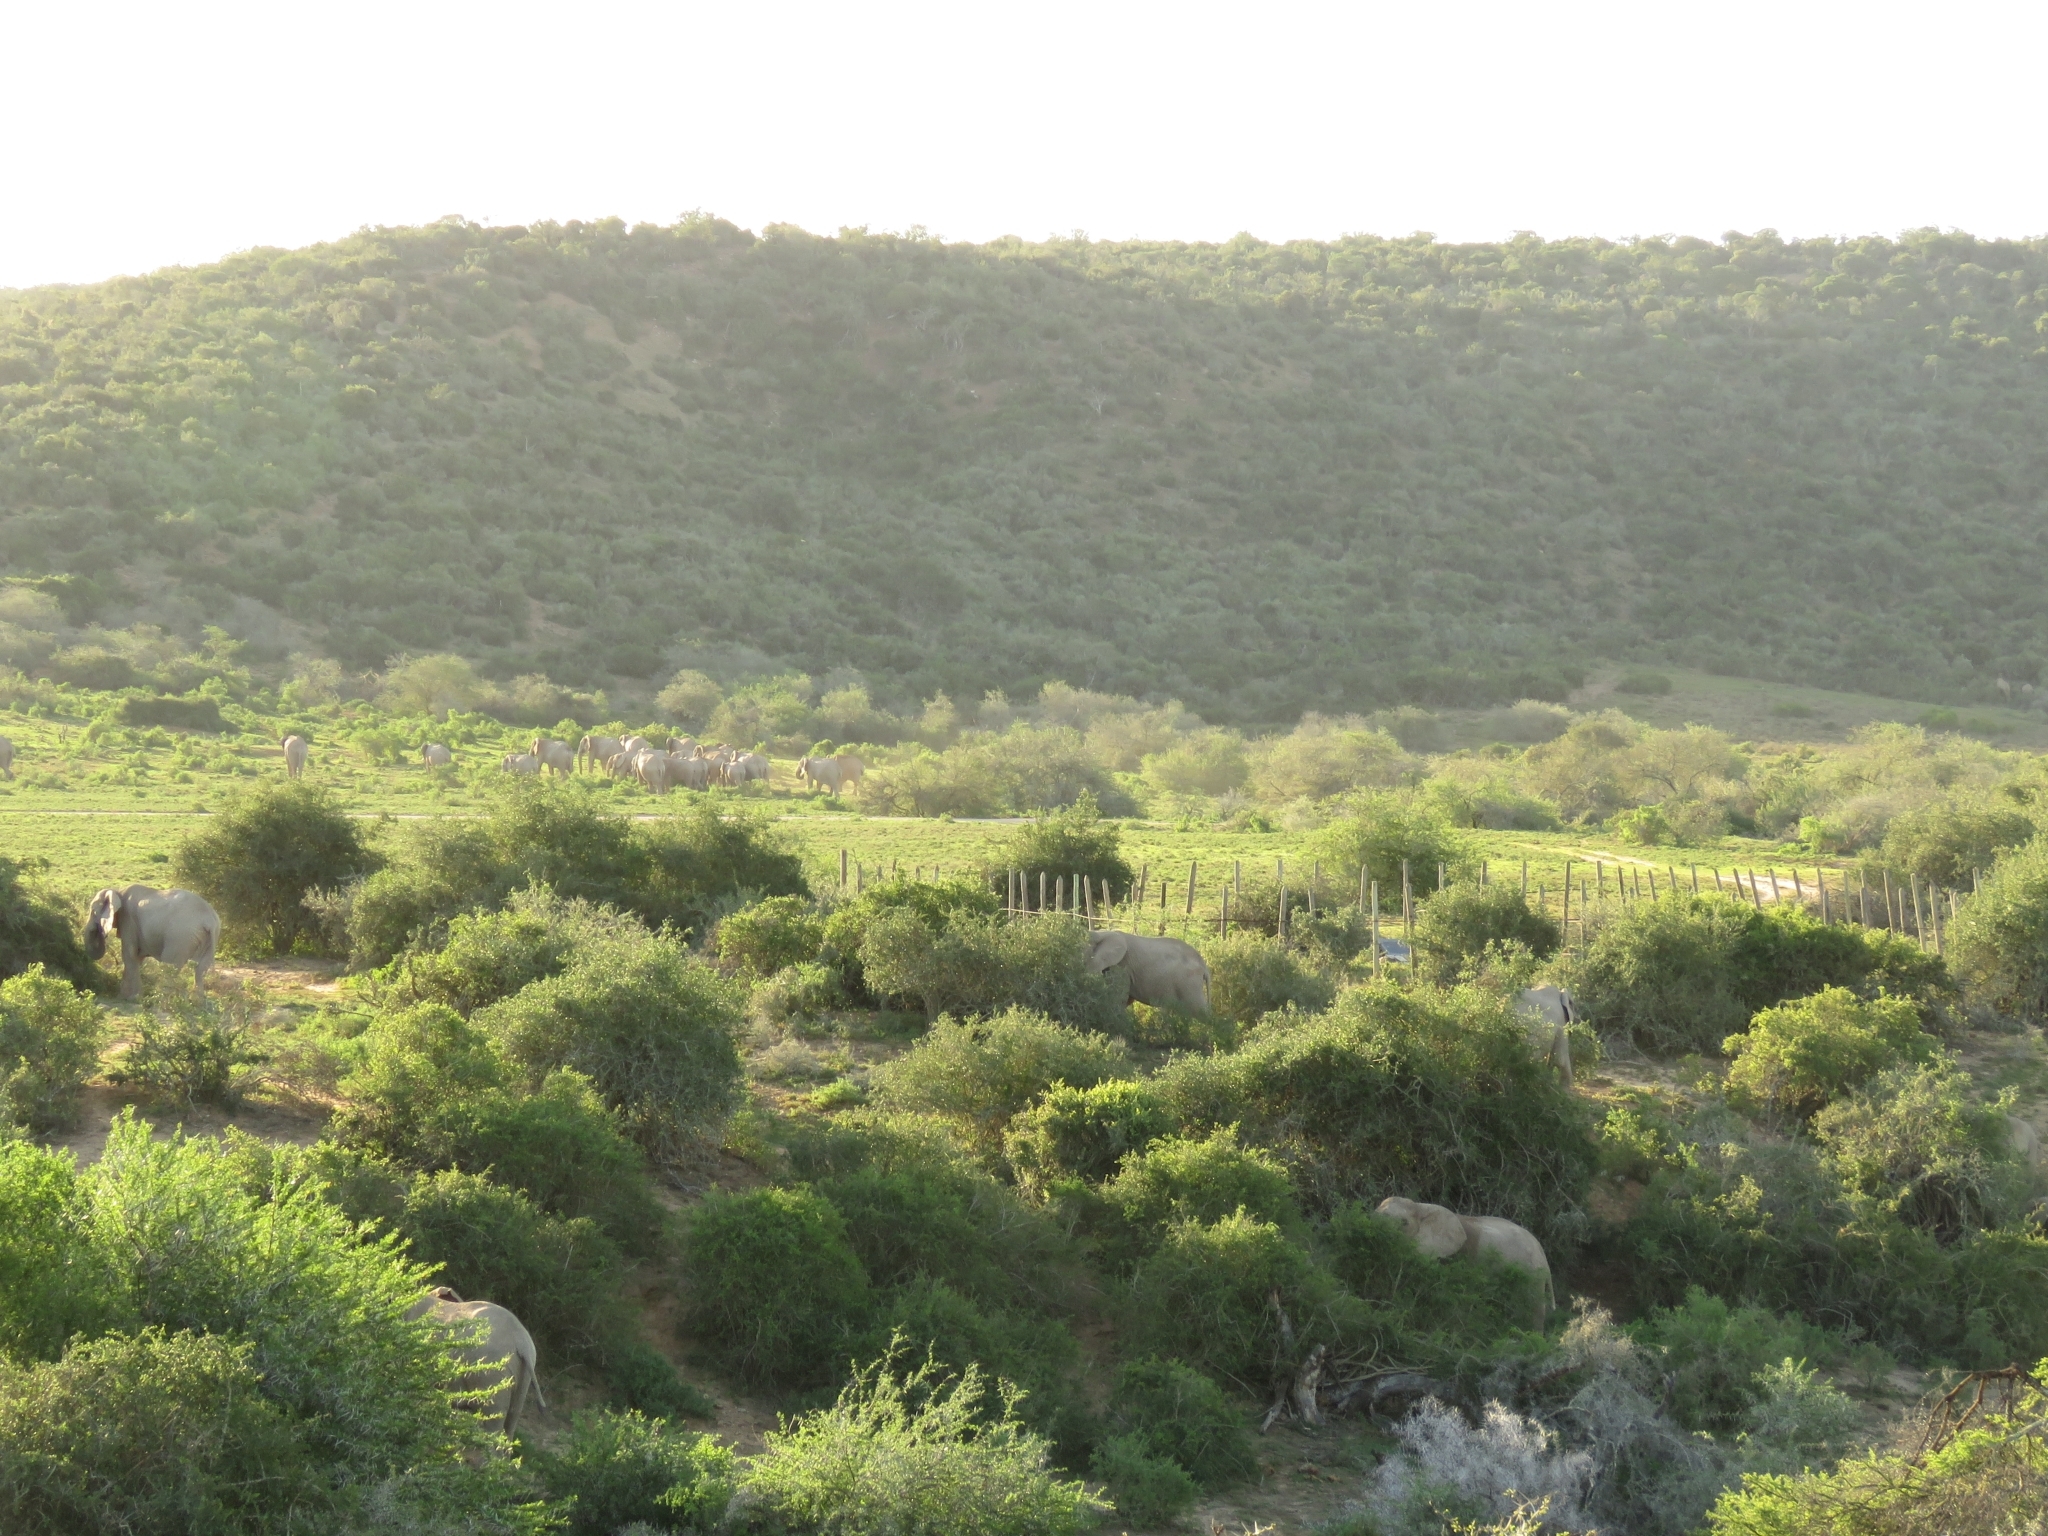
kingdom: Animalia
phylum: Chordata
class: Mammalia
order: Proboscidea
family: Elephantidae
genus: Loxodonta
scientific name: Loxodonta africana
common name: African elephant
